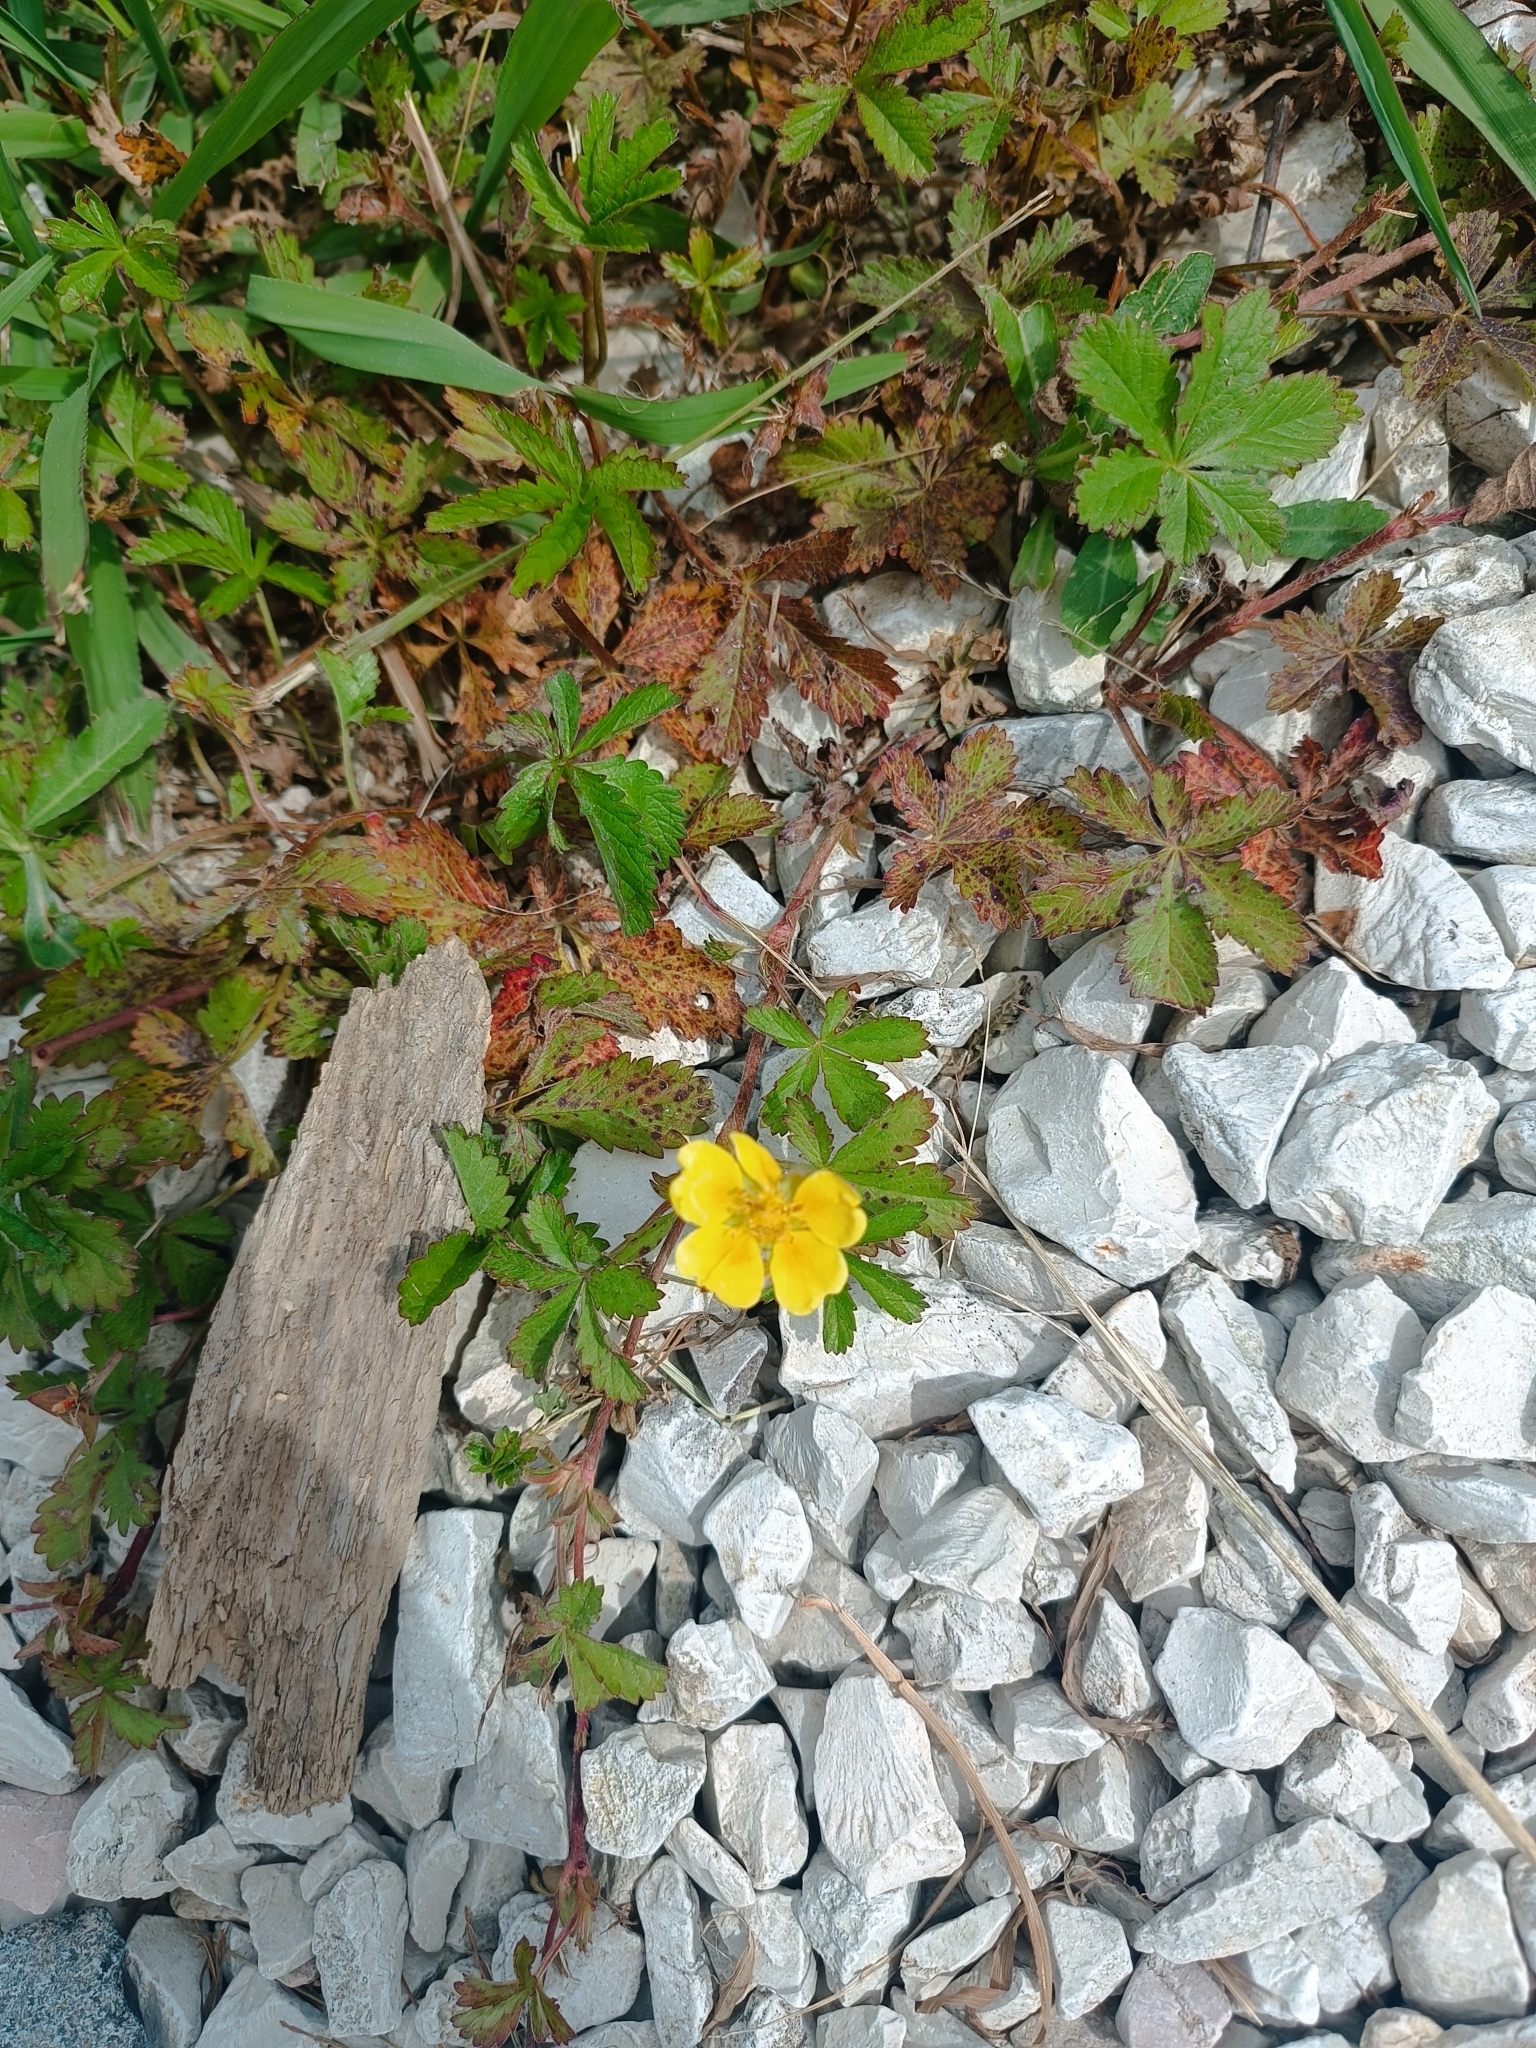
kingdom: Plantae
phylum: Tracheophyta
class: Magnoliopsida
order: Rosales
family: Rosaceae
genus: Potentilla
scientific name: Potentilla reptans
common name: Creeping cinquefoil
